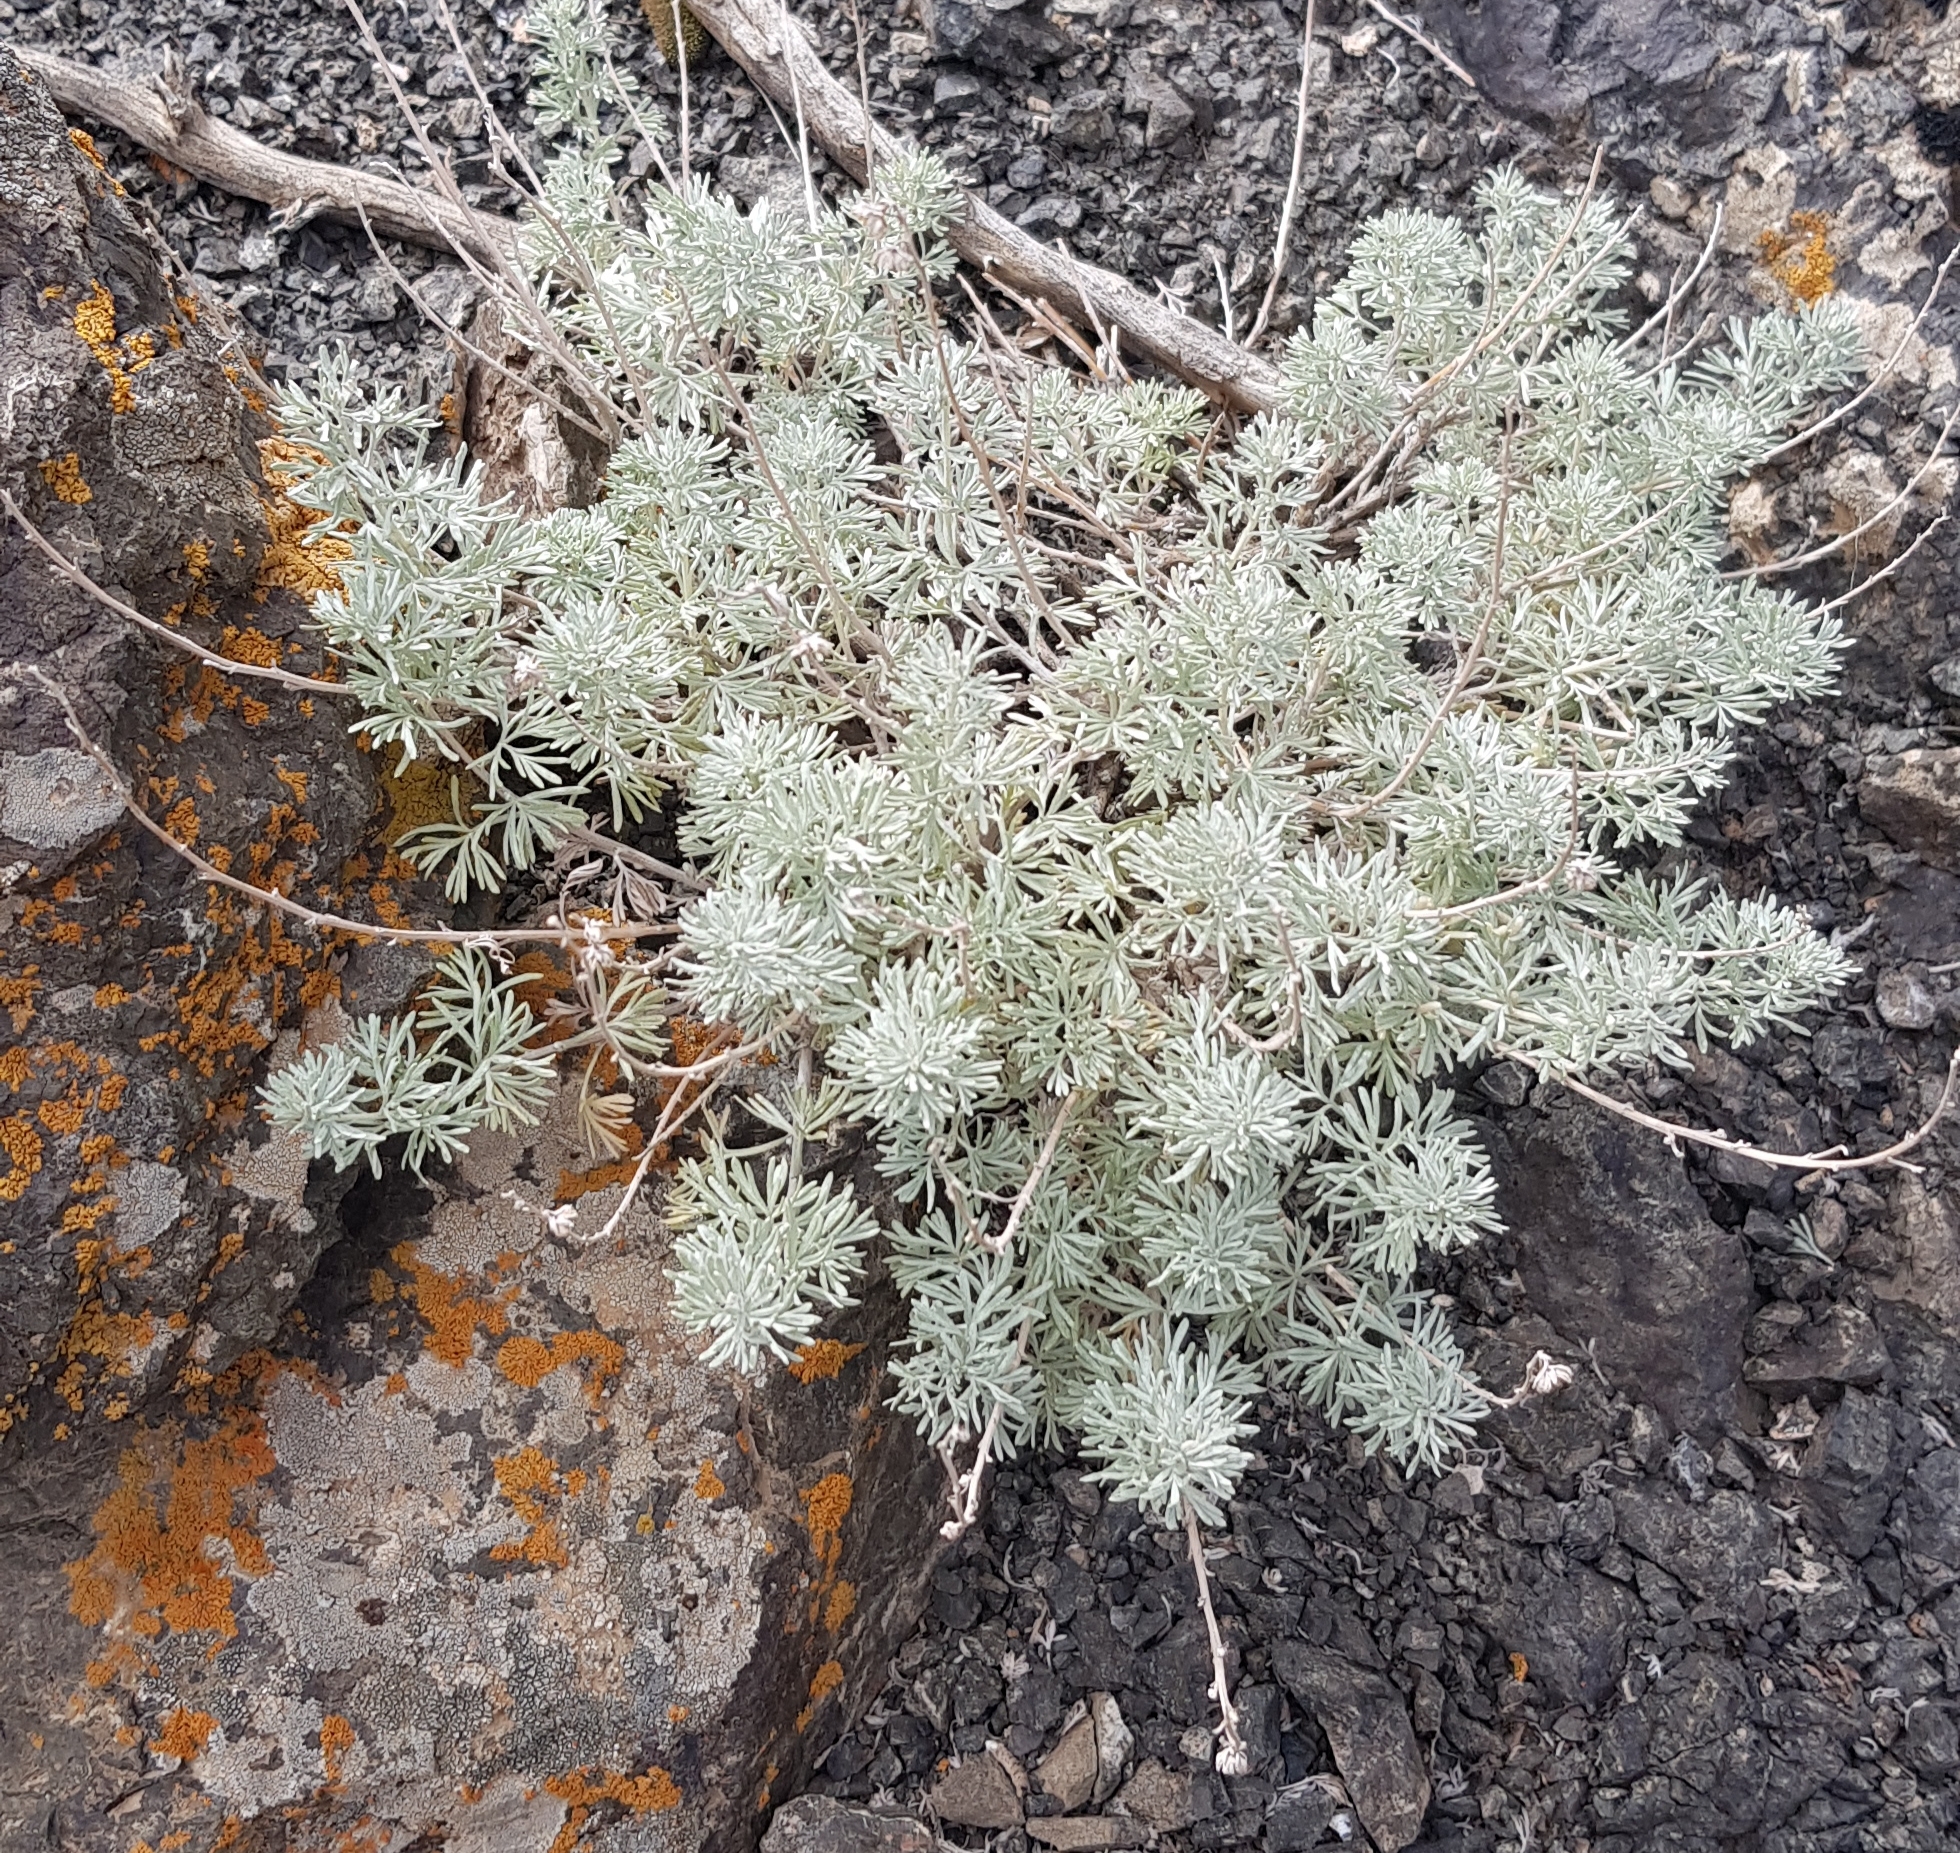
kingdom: Plantae
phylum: Tracheophyta
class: Magnoliopsida
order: Asterales
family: Asteraceae
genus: Artemisia
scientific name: Artemisia rutifolia
